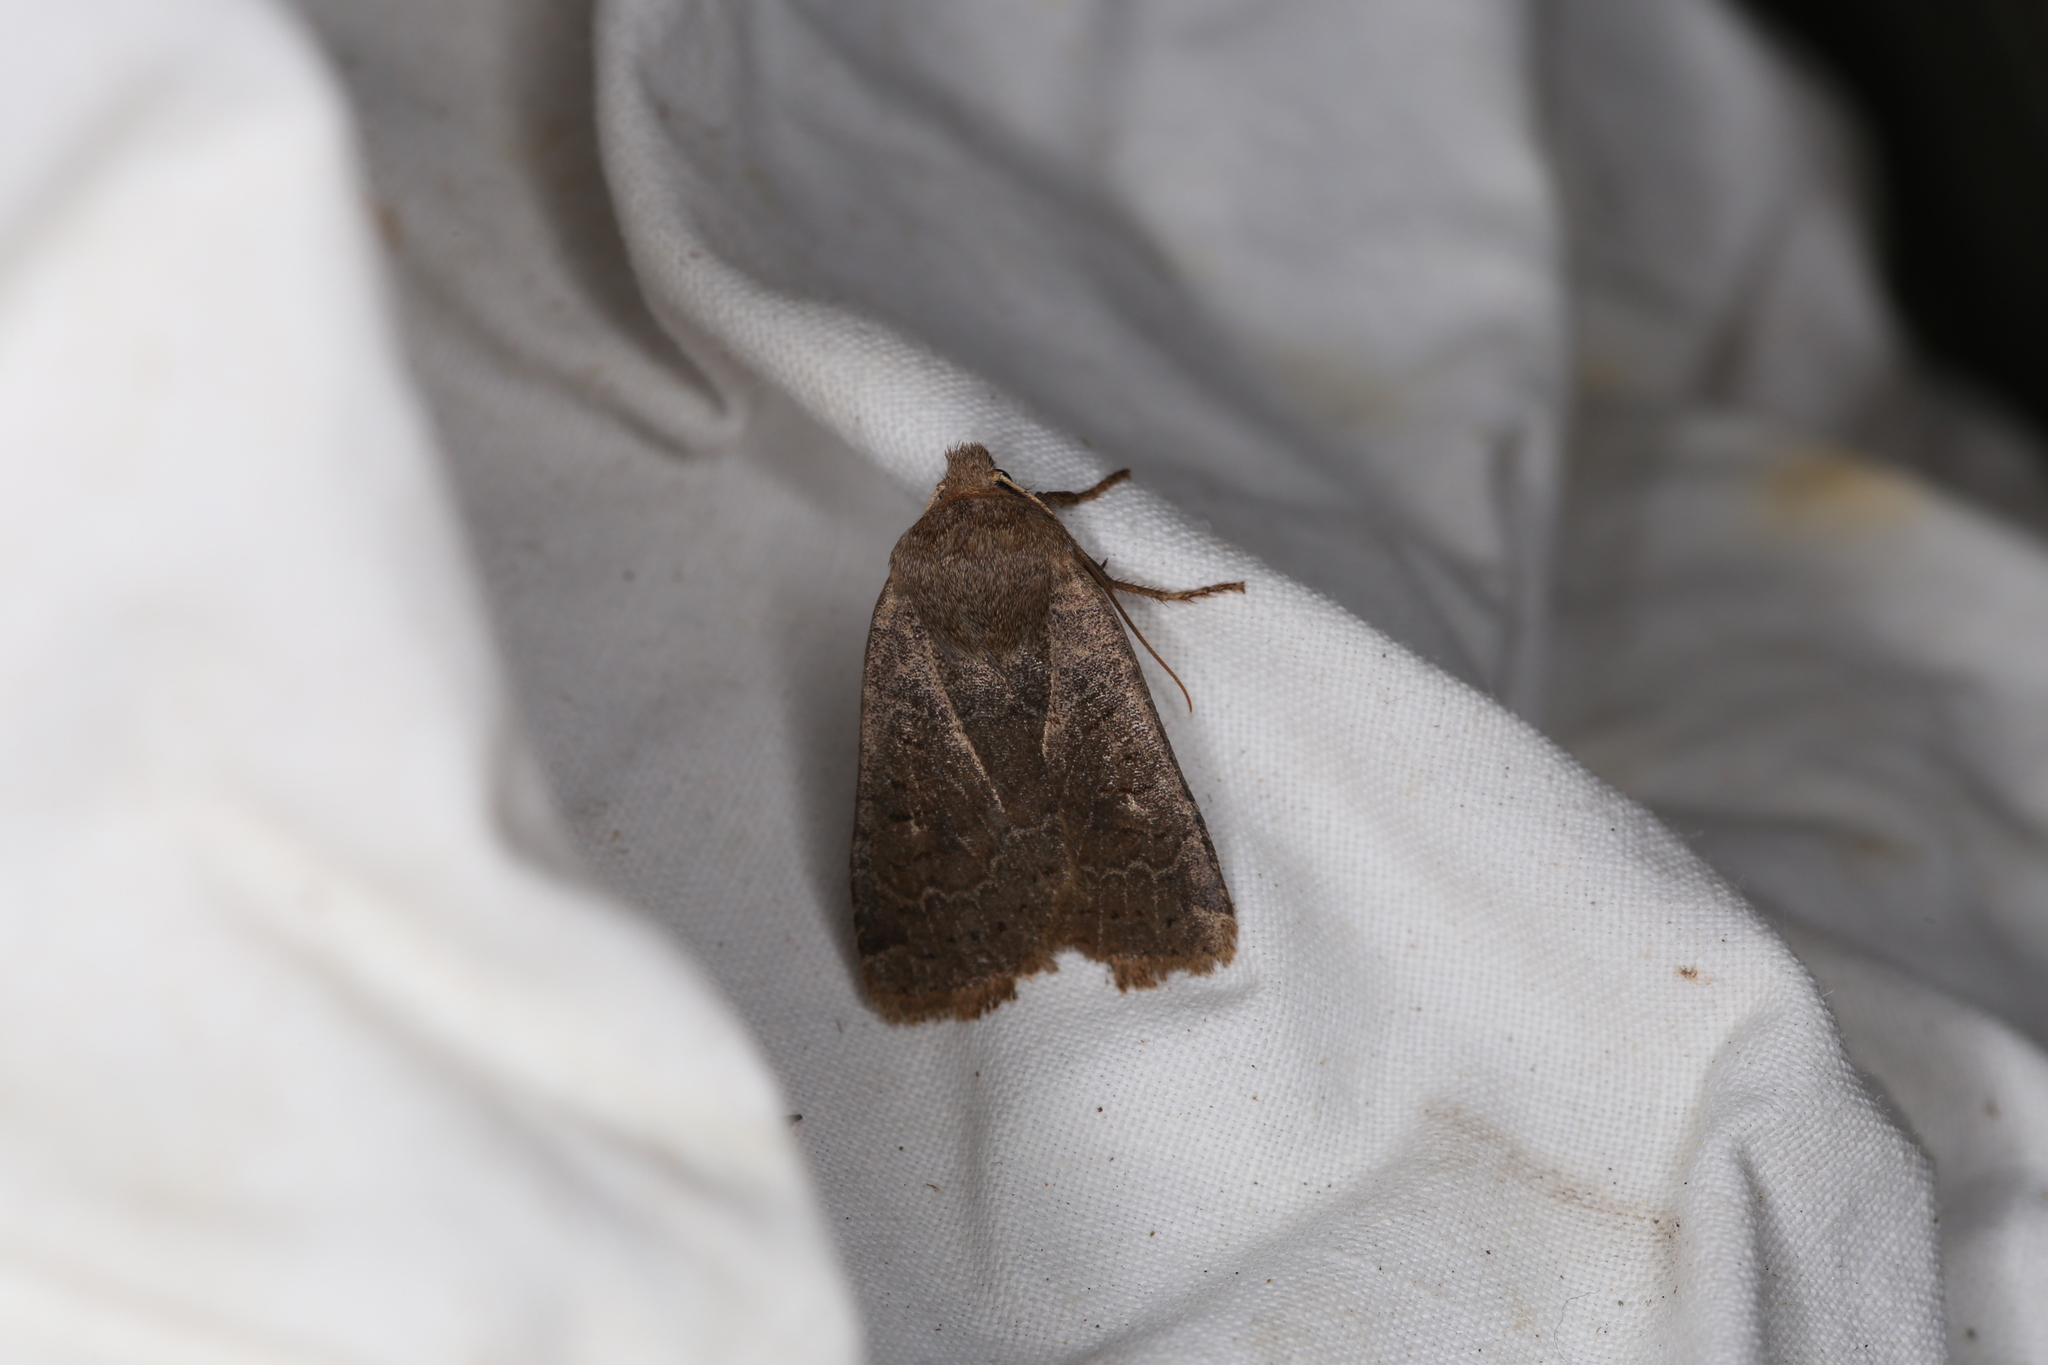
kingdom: Animalia
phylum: Arthropoda
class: Insecta
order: Lepidoptera
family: Noctuidae
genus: Conistra
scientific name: Conistra vaccinii
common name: Chestnut
